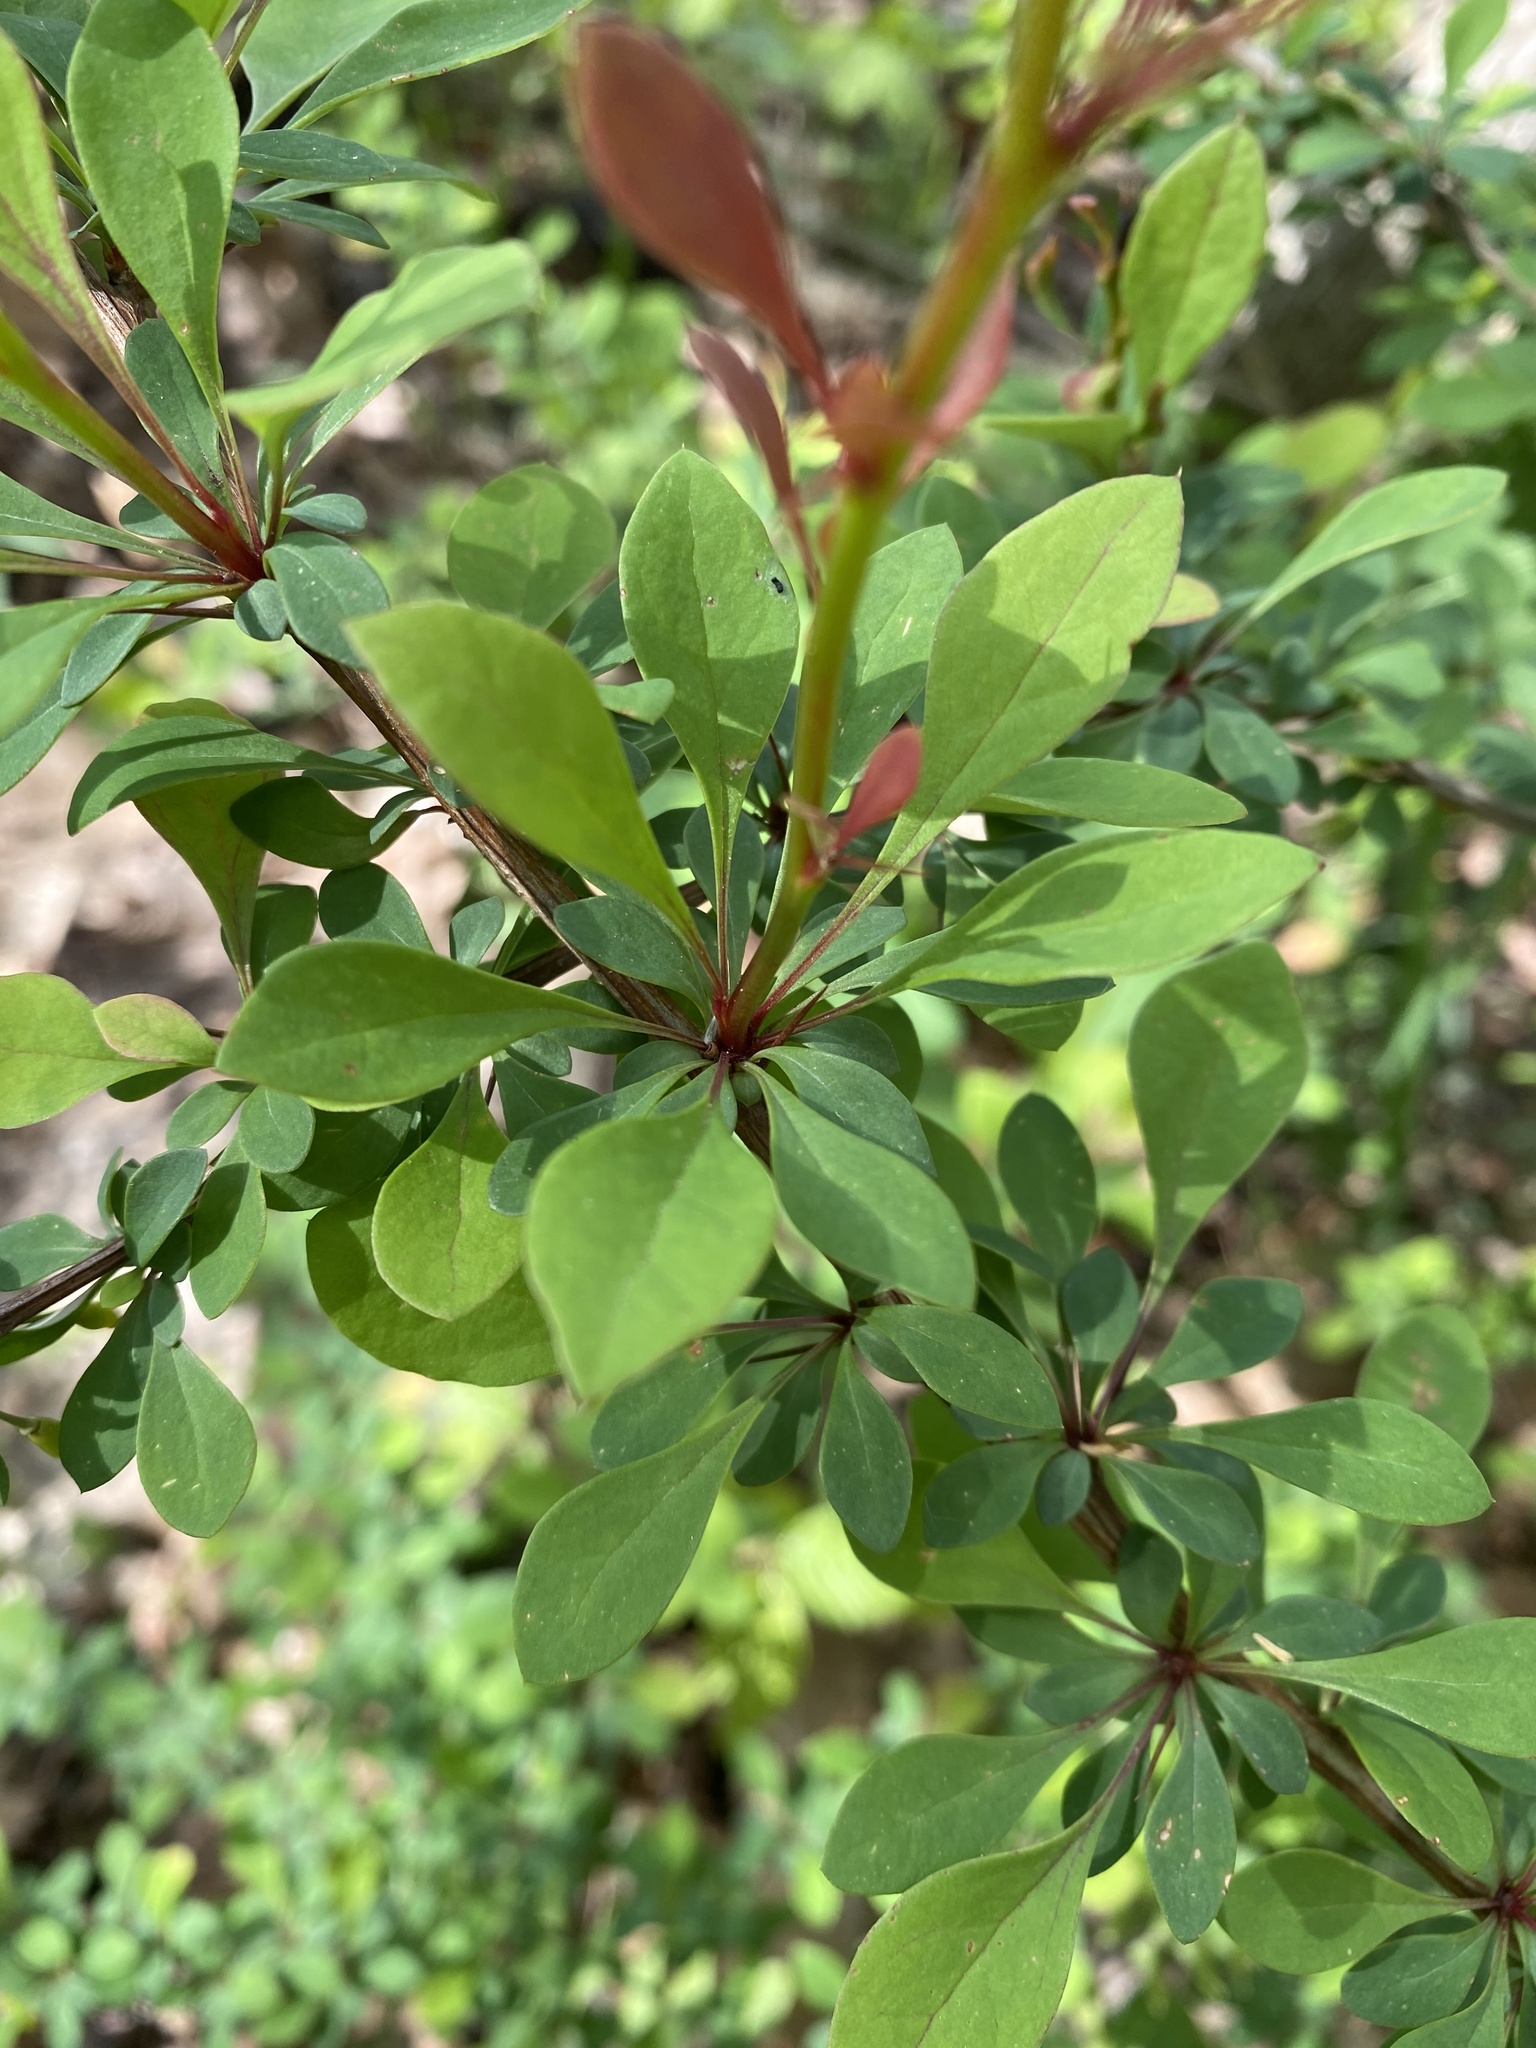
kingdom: Plantae
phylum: Tracheophyta
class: Magnoliopsida
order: Ranunculales
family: Berberidaceae
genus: Berberis
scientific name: Berberis thunbergii
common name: Japanese barberry
